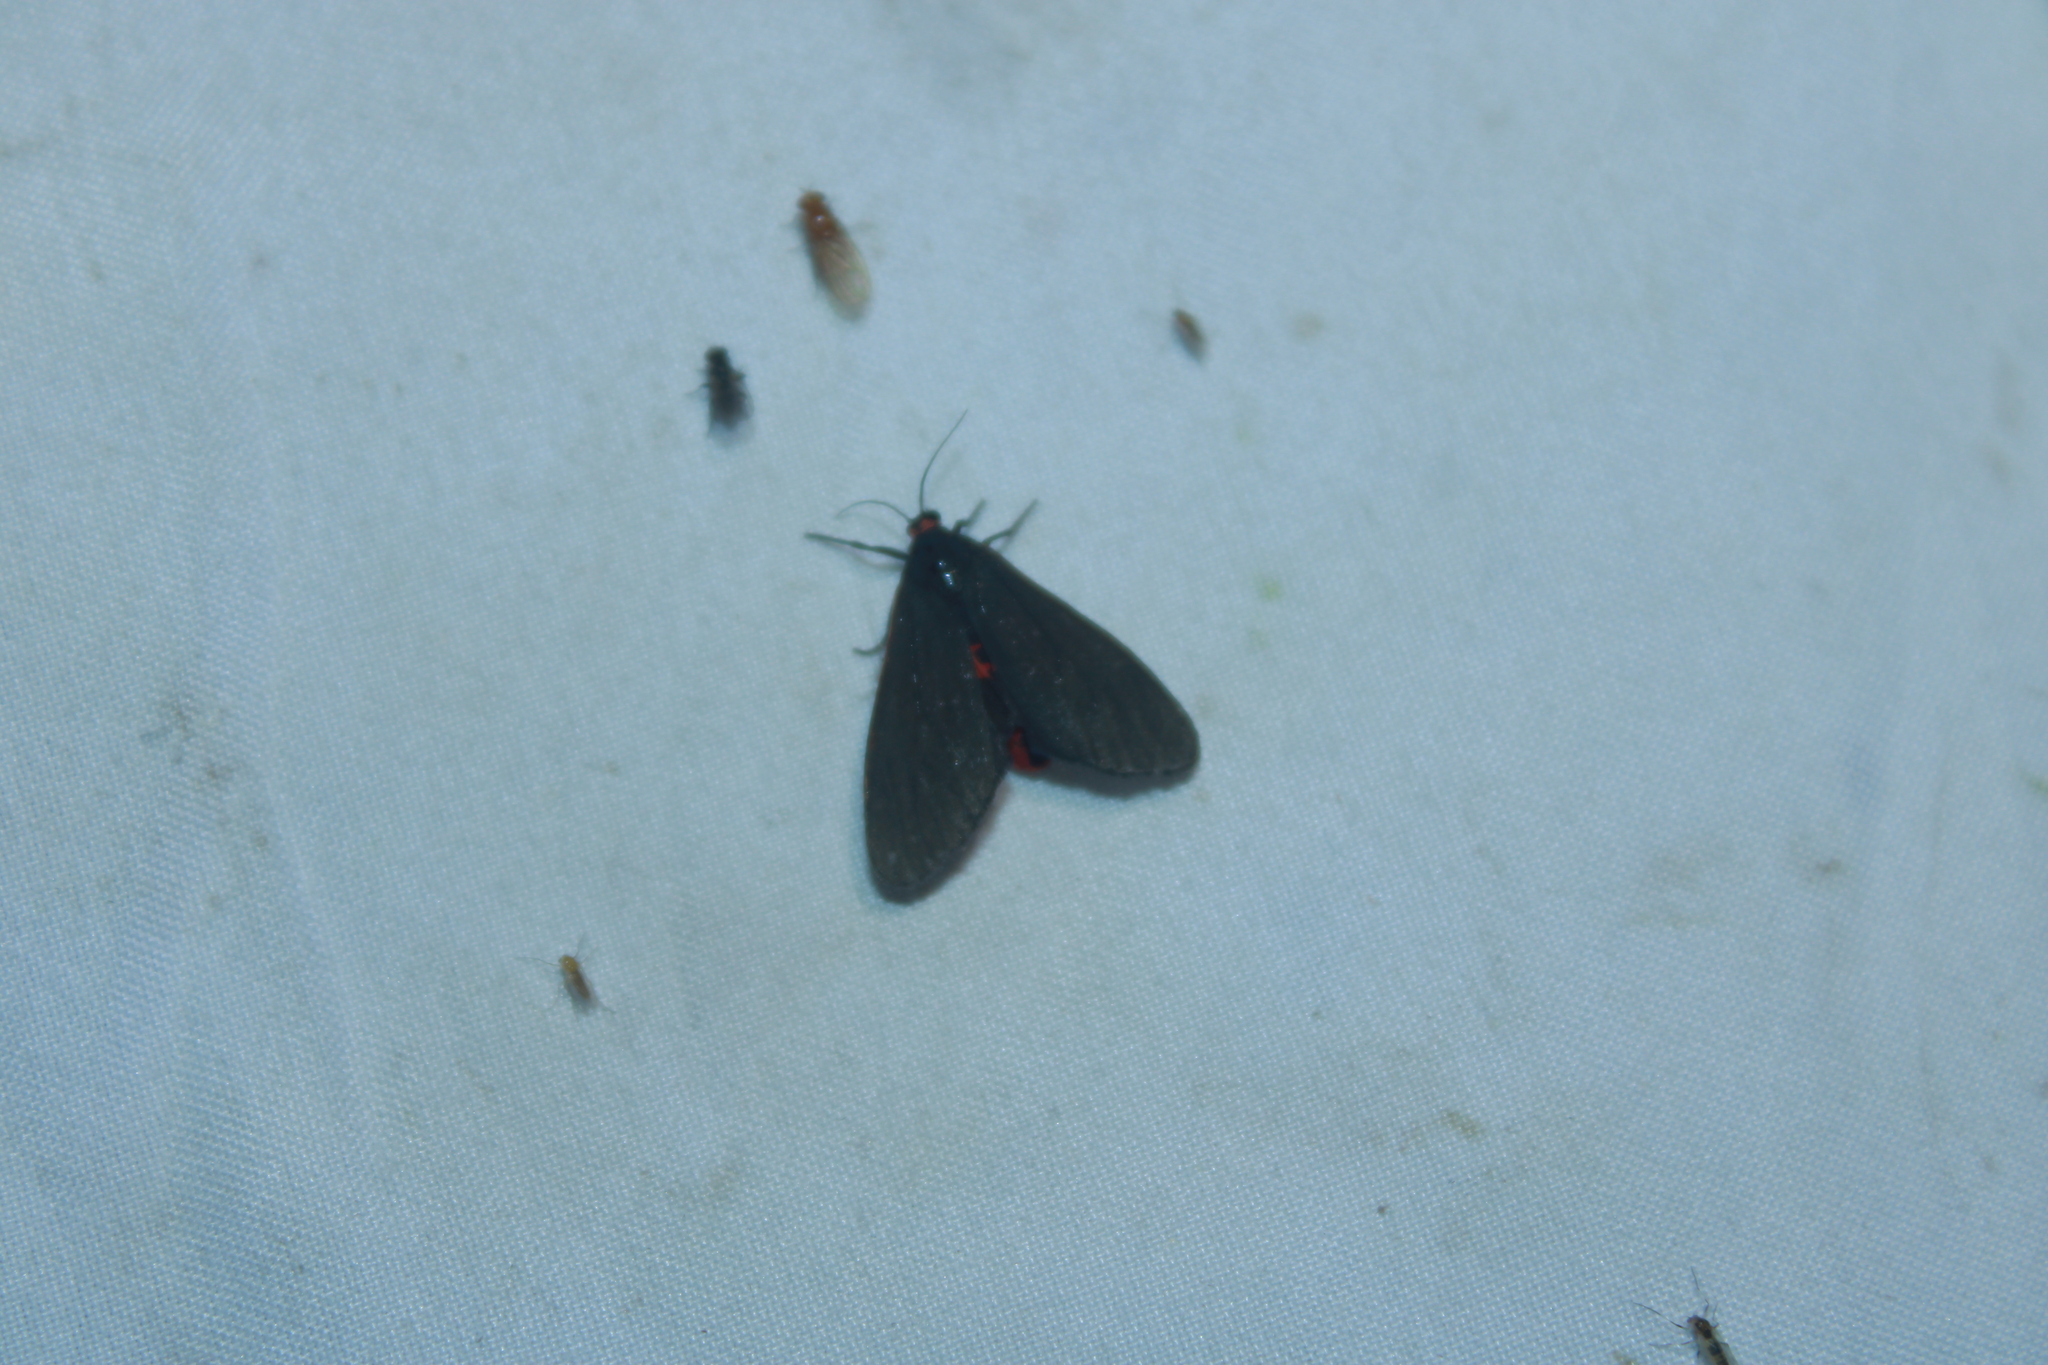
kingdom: Animalia
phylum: Arthropoda
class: Insecta
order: Lepidoptera
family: Erebidae
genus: Virbia
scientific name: Virbia laeta
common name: Joyful holomelina moth
